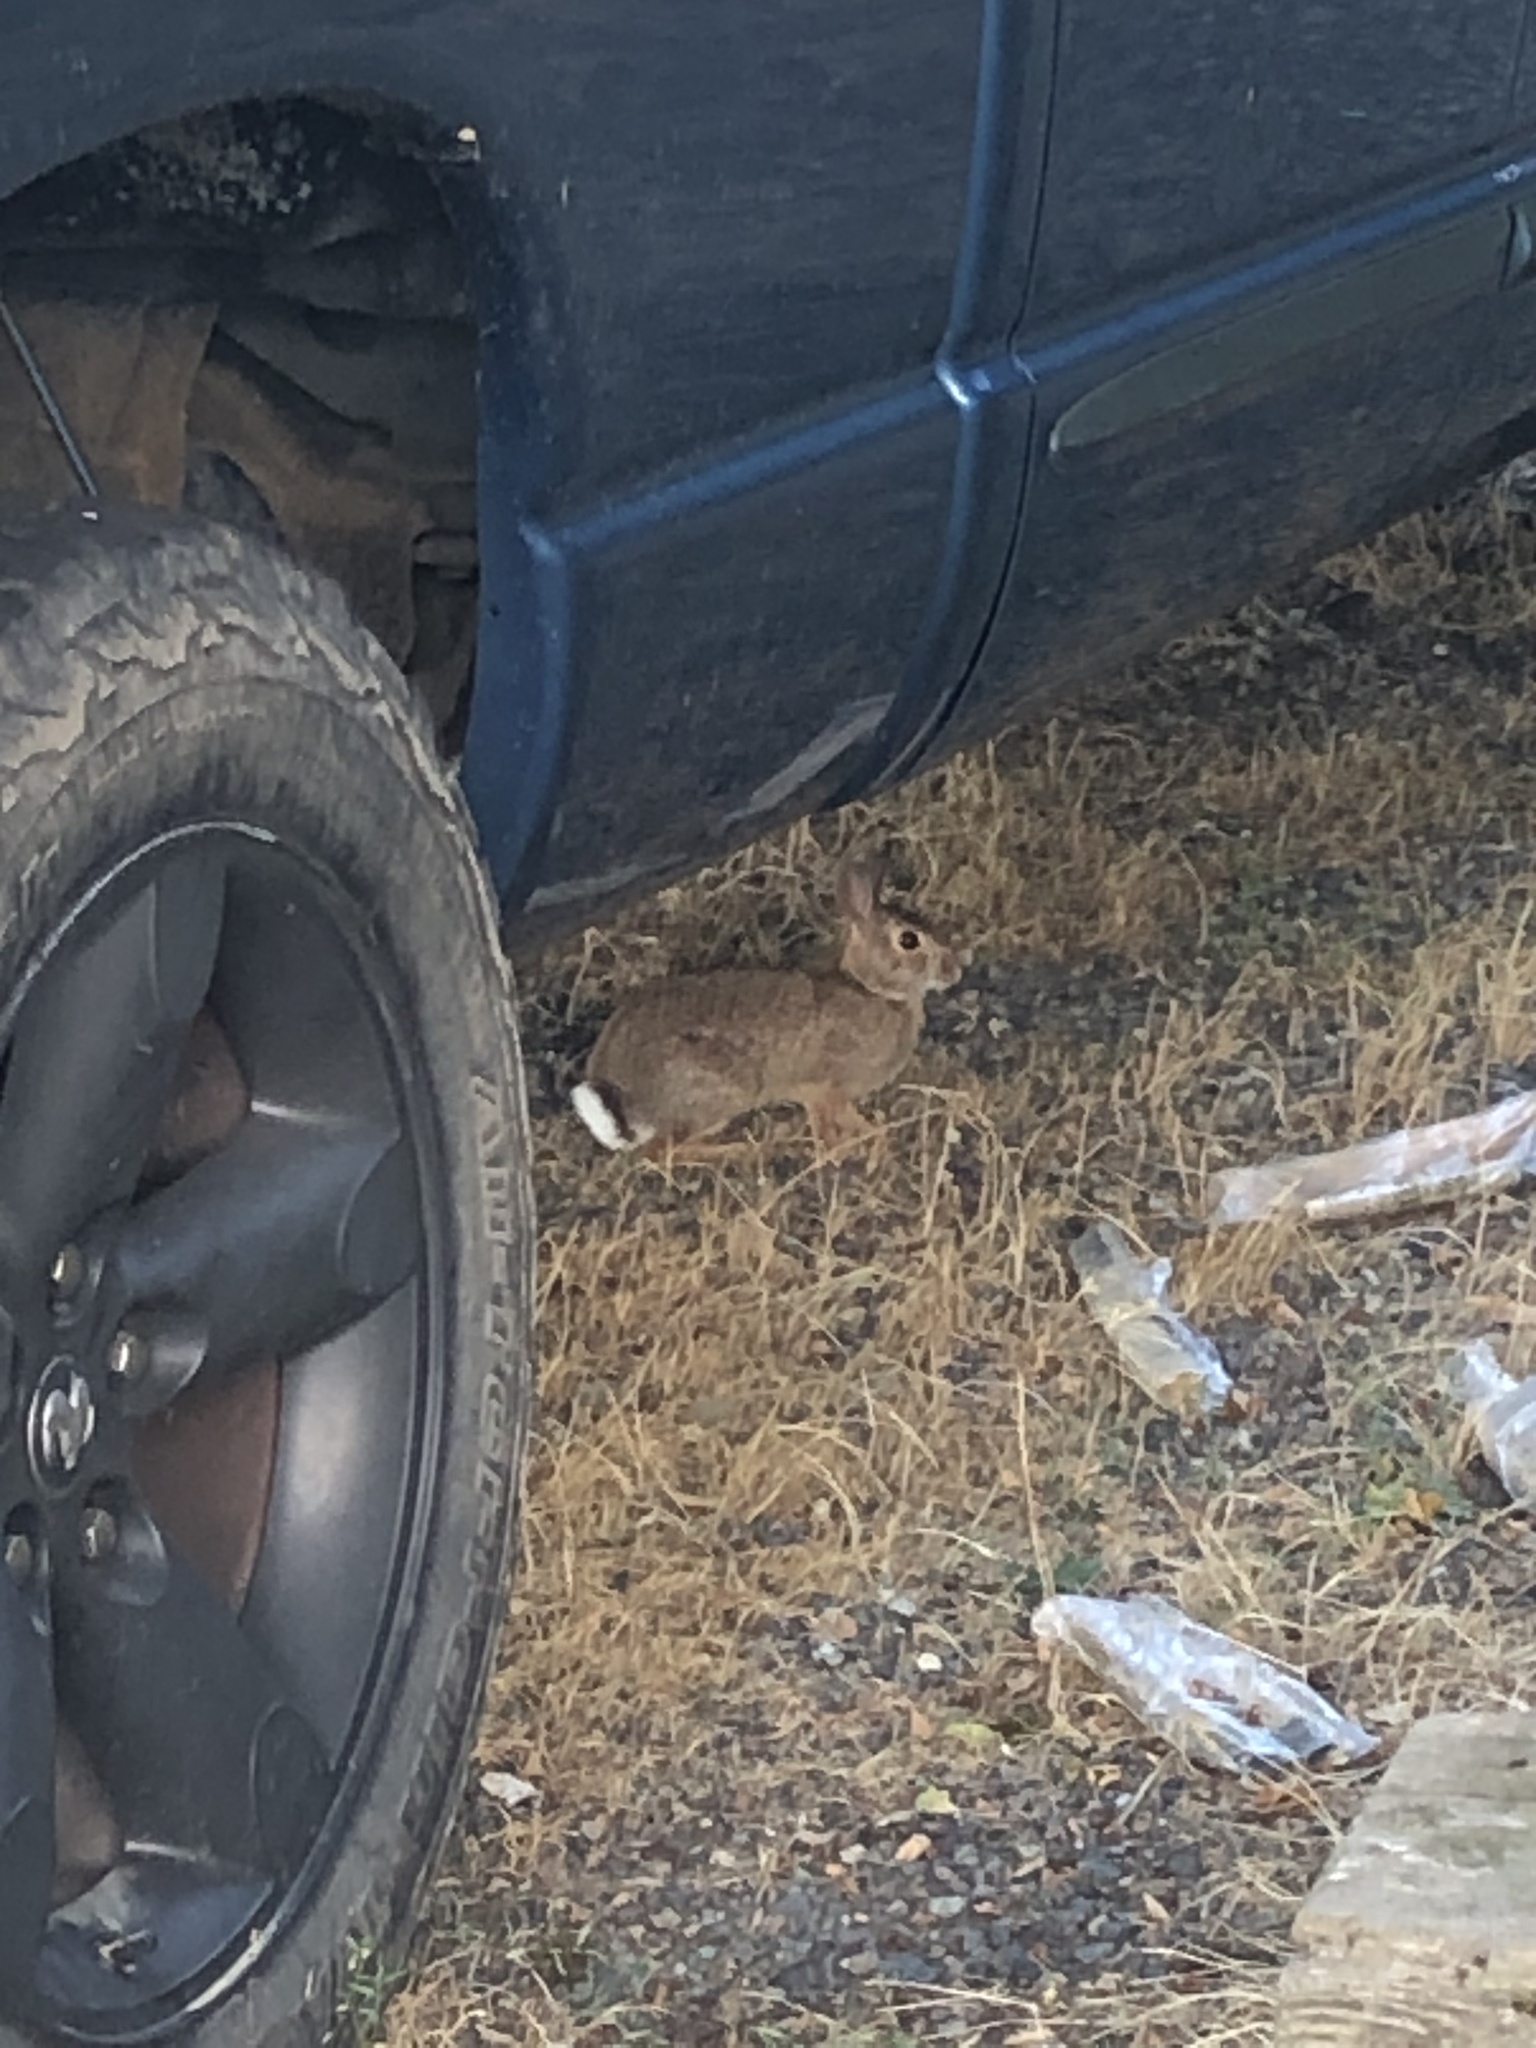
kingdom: Animalia
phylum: Chordata
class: Mammalia
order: Lagomorpha
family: Leporidae
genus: Sylvilagus
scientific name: Sylvilagus floridanus
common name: Eastern cottontail
